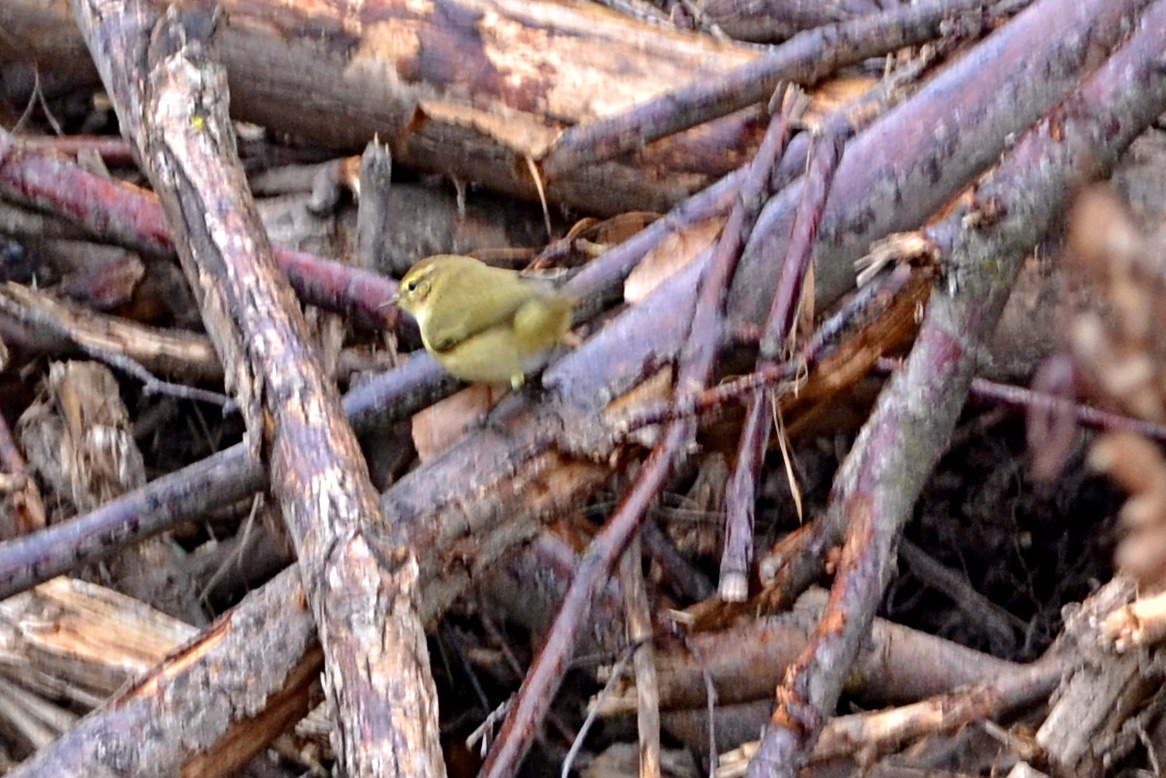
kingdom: Animalia
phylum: Chordata
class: Aves
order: Passeriformes
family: Phylloscopidae
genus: Phylloscopus
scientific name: Phylloscopus collybita
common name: Common chiffchaff
